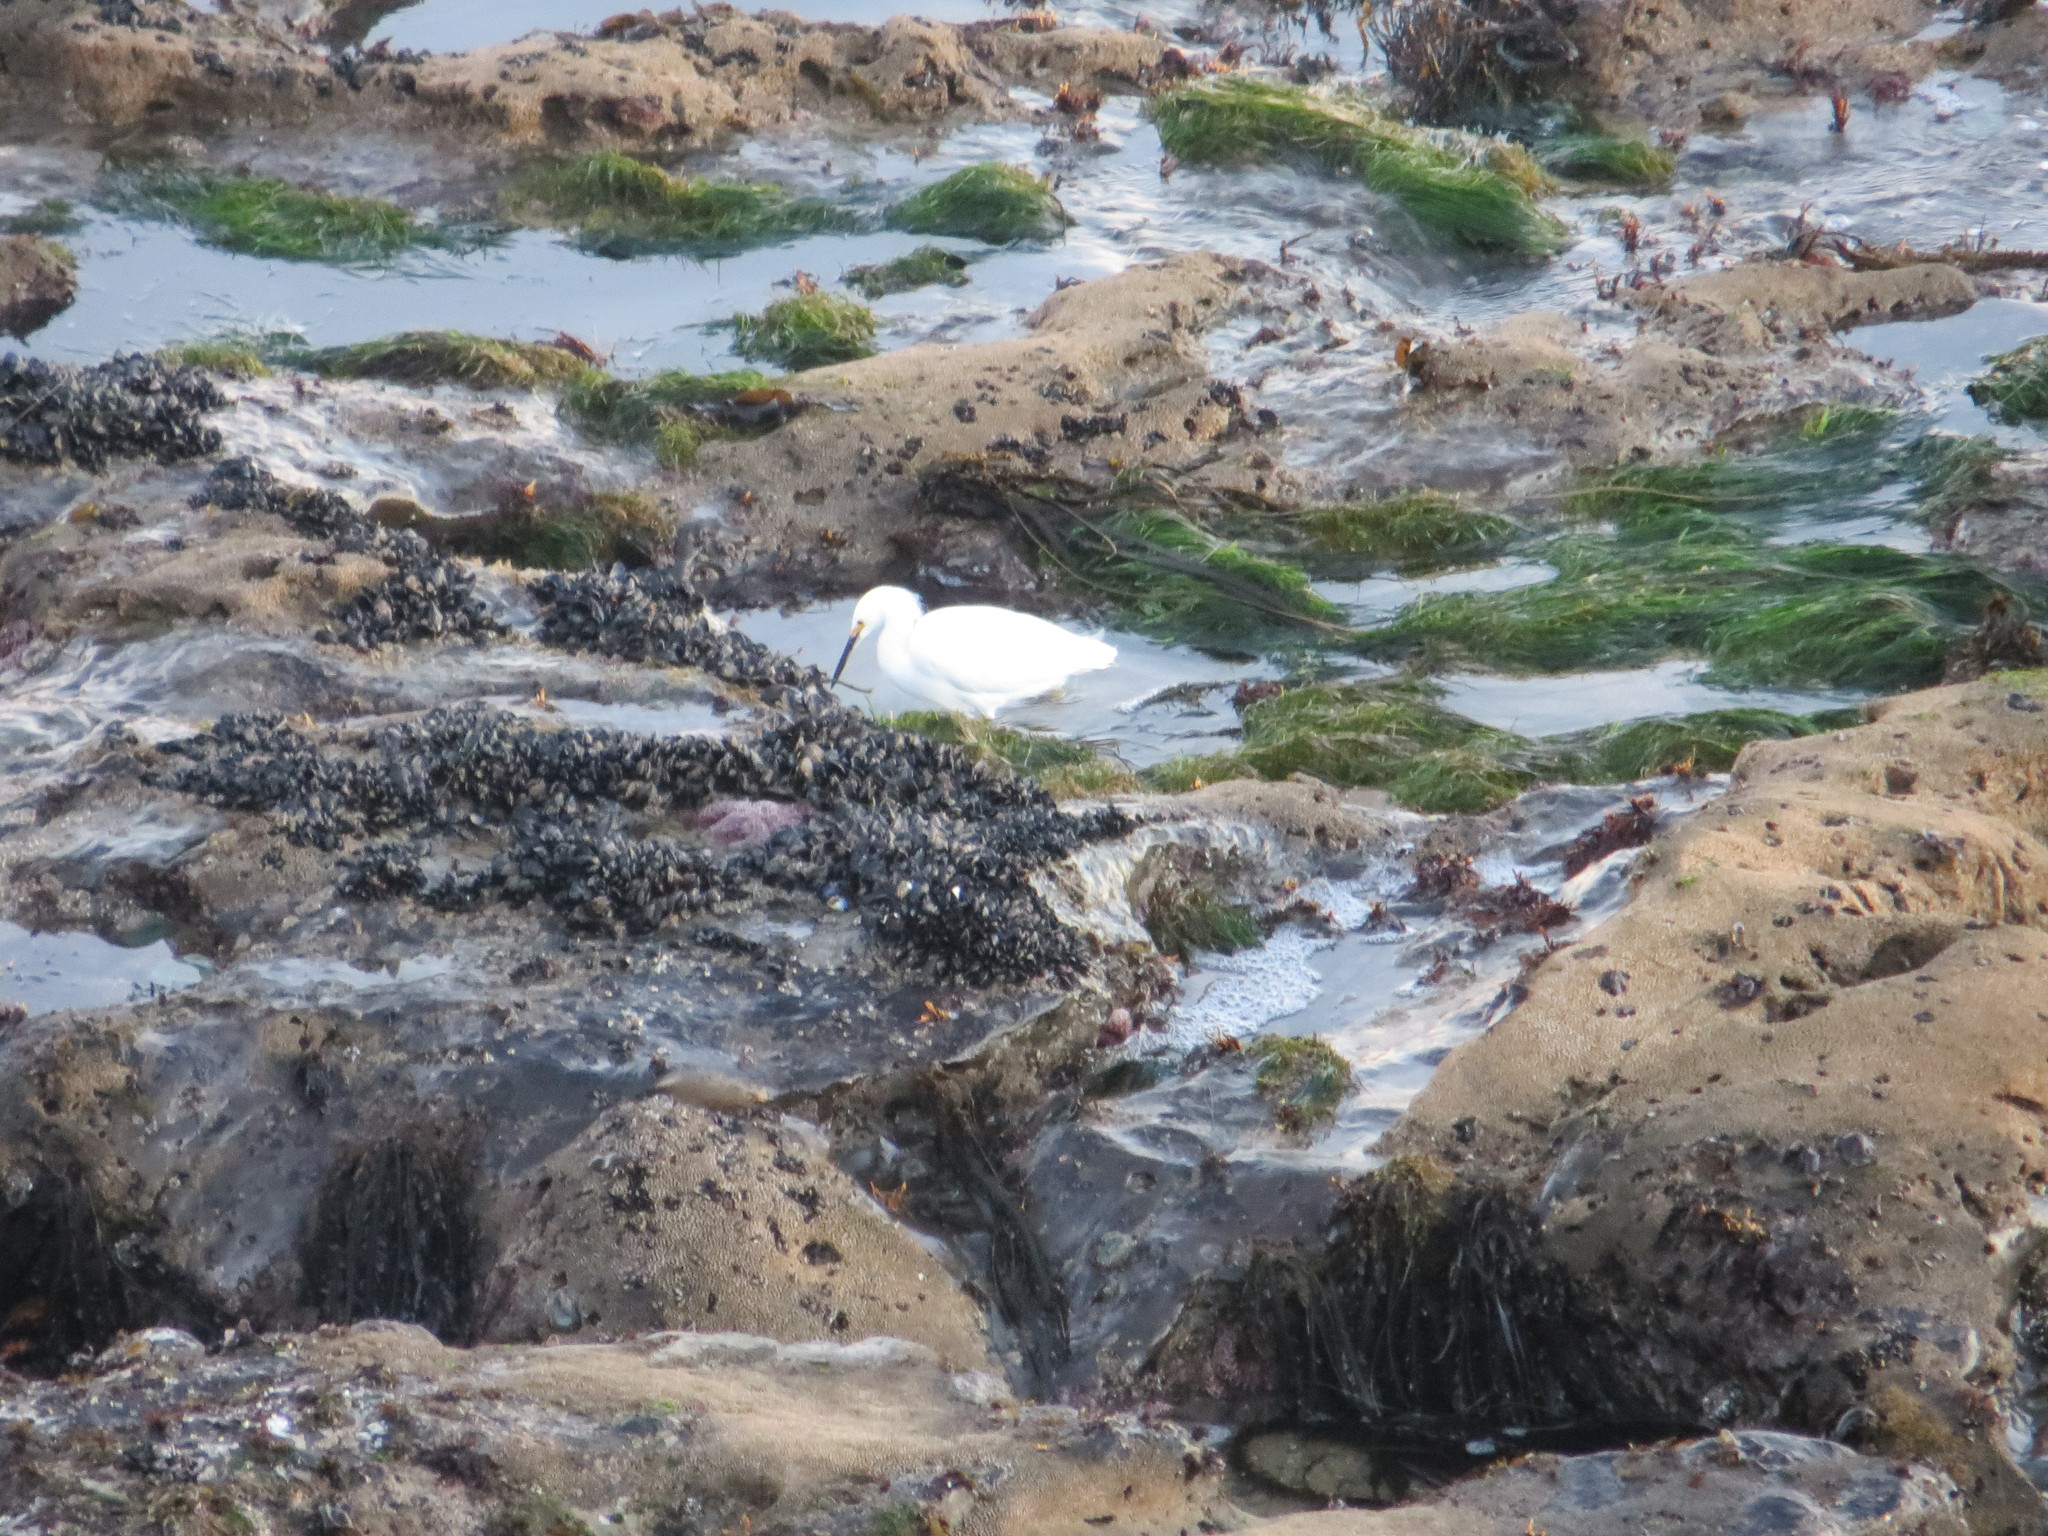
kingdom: Animalia
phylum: Chordata
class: Aves
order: Pelecaniformes
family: Ardeidae
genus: Egretta
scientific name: Egretta thula
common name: Snowy egret
